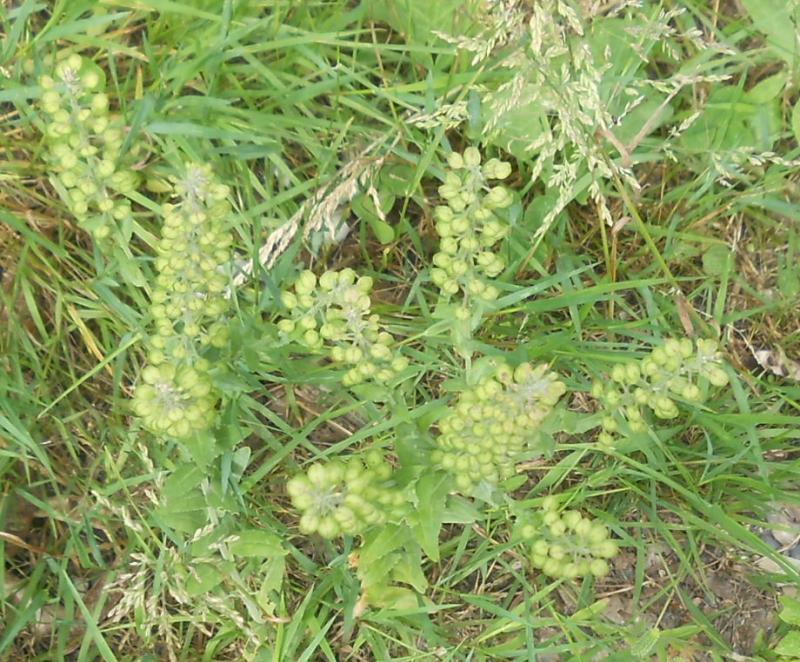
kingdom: Plantae
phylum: Tracheophyta
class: Magnoliopsida
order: Brassicales
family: Brassicaceae
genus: Lepidium
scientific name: Lepidium campestre
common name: Field pepperwort
